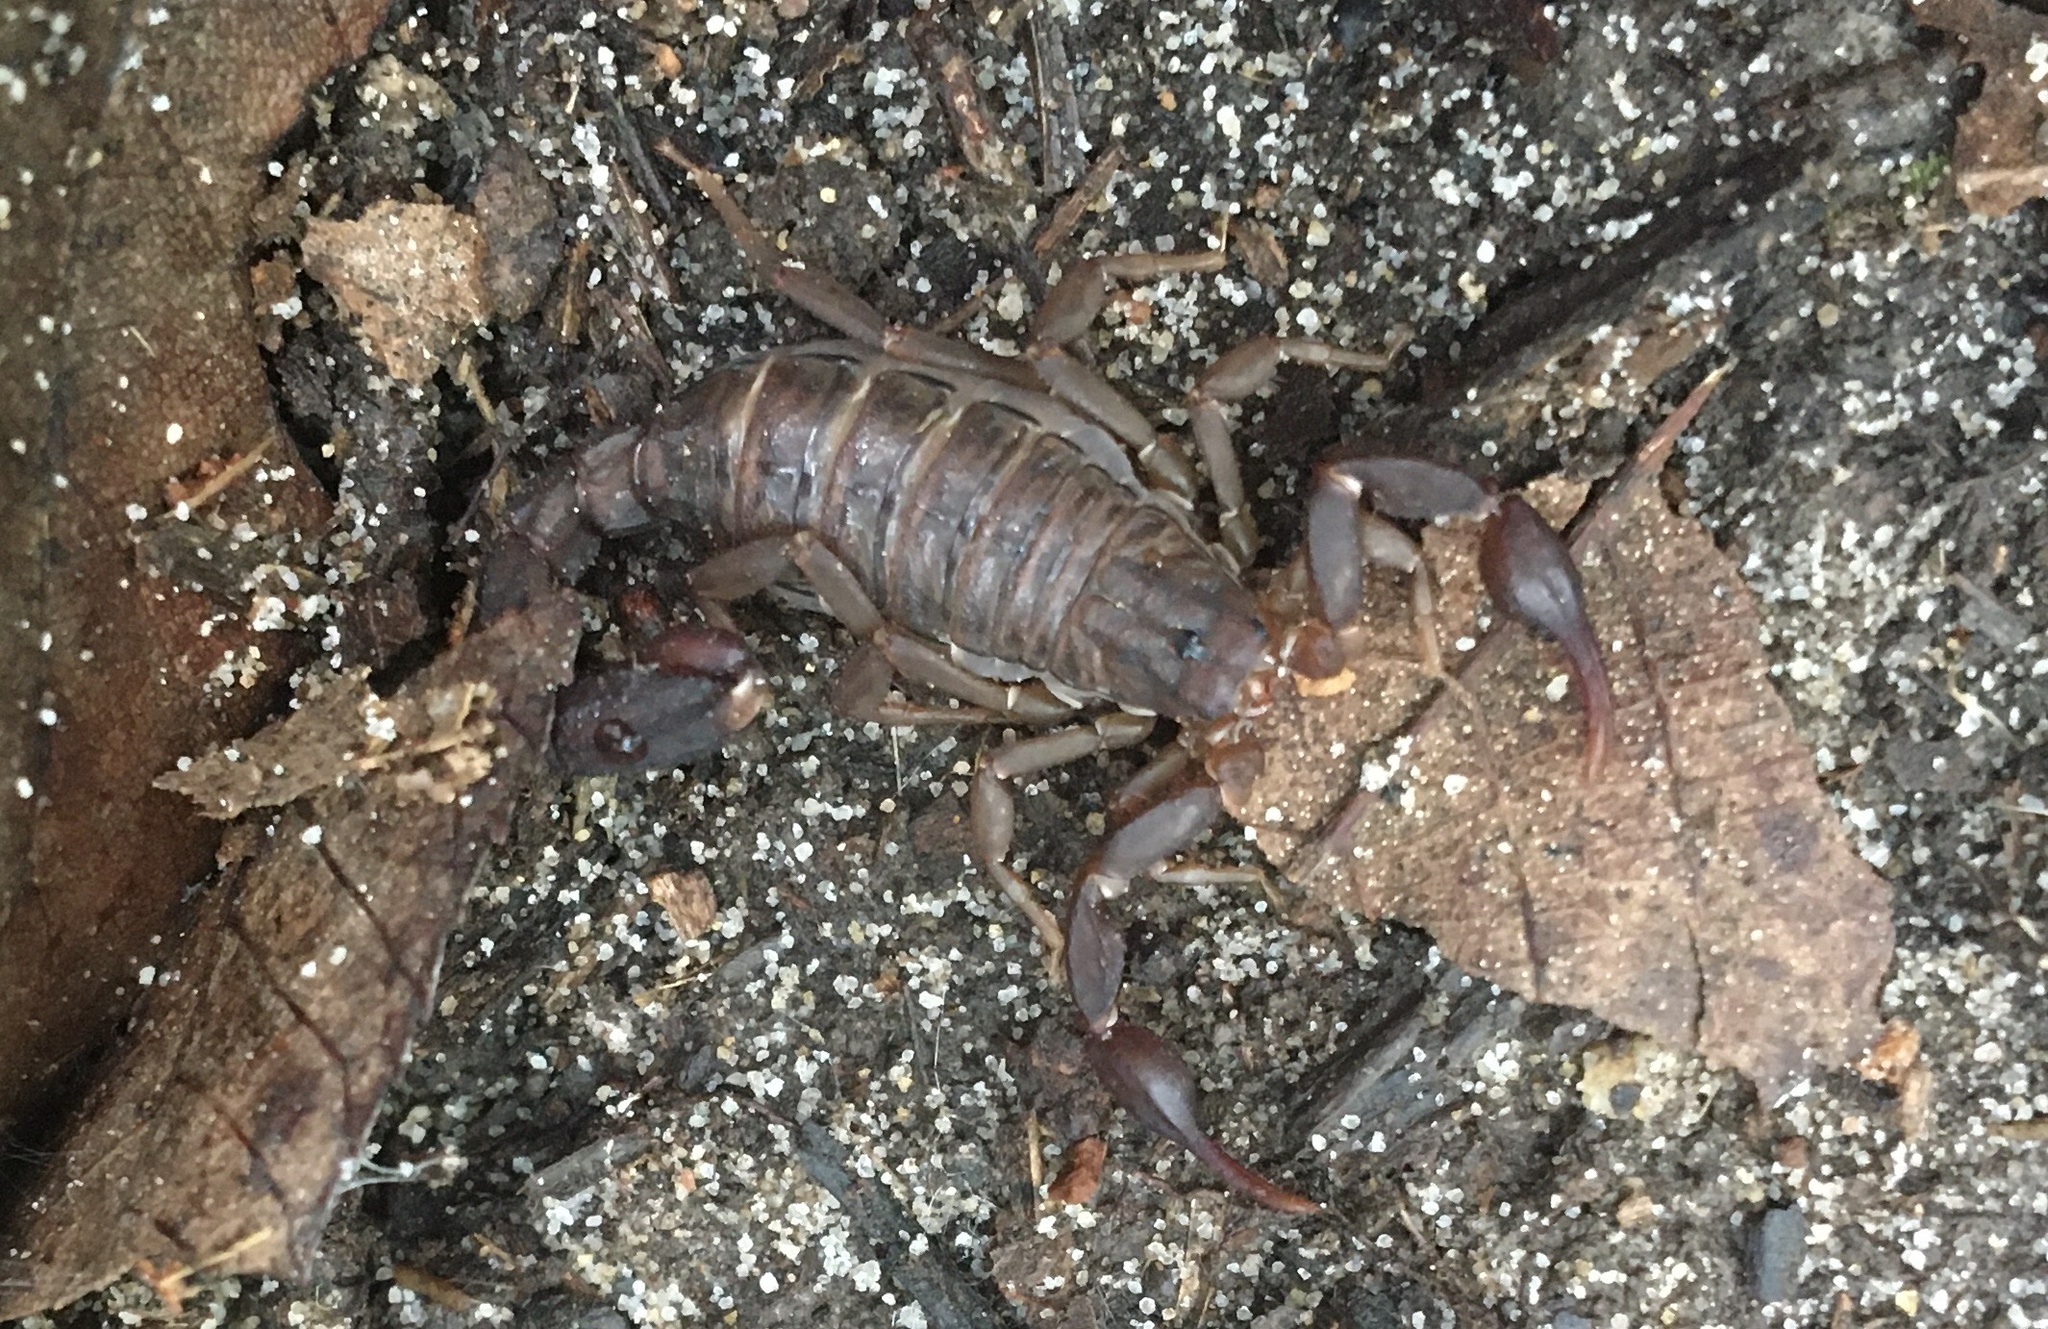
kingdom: Animalia
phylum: Arthropoda
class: Arachnida
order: Scorpiones
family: Vaejovidae
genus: Vaejovis
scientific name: Vaejovis carolinianus
